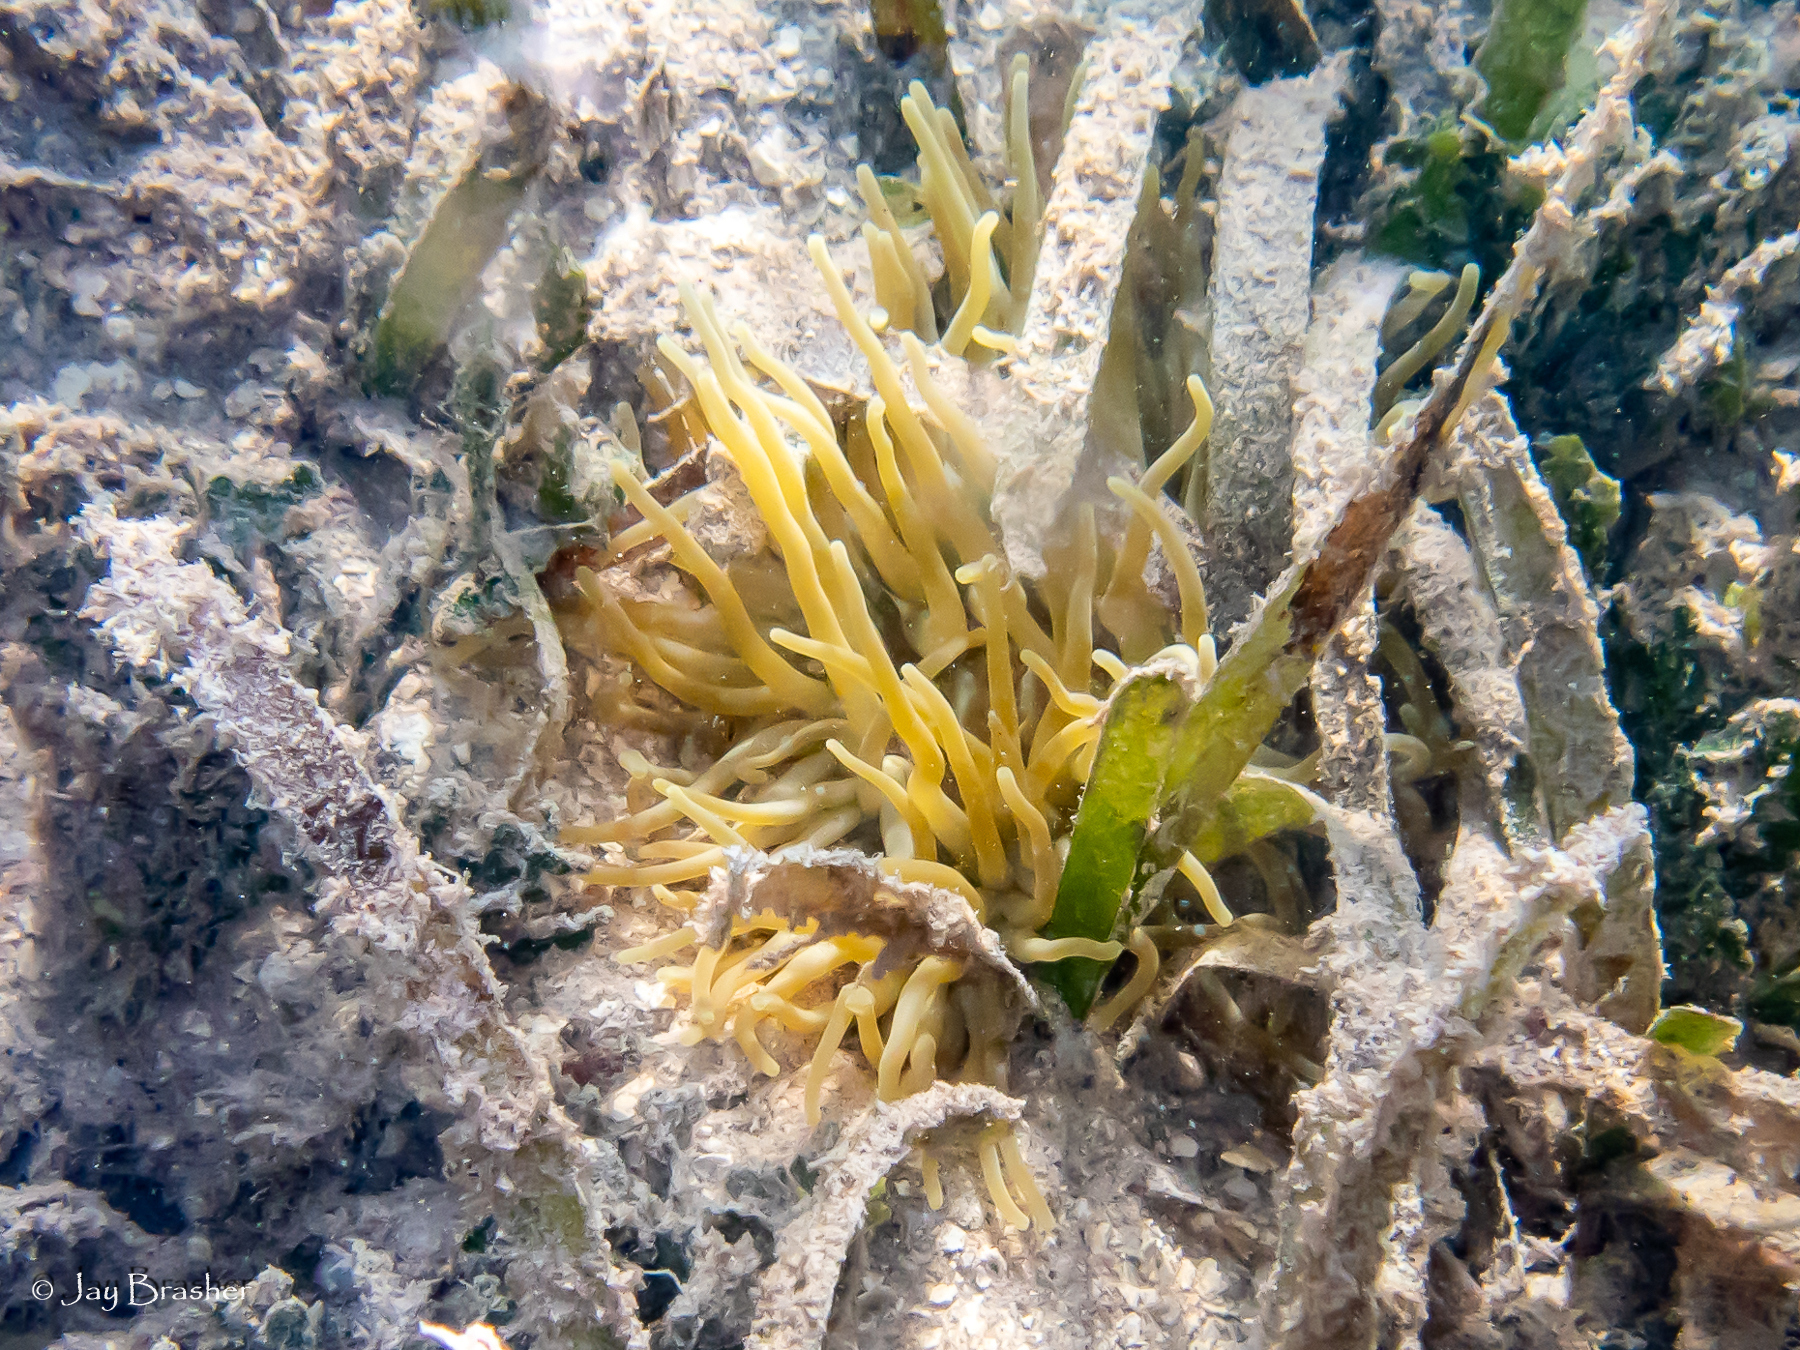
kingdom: Animalia
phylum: Cnidaria
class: Anthozoa
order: Actiniaria
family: Actiniidae
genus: Condylactis
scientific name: Condylactis gigantea
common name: Giant caribbean anemone
